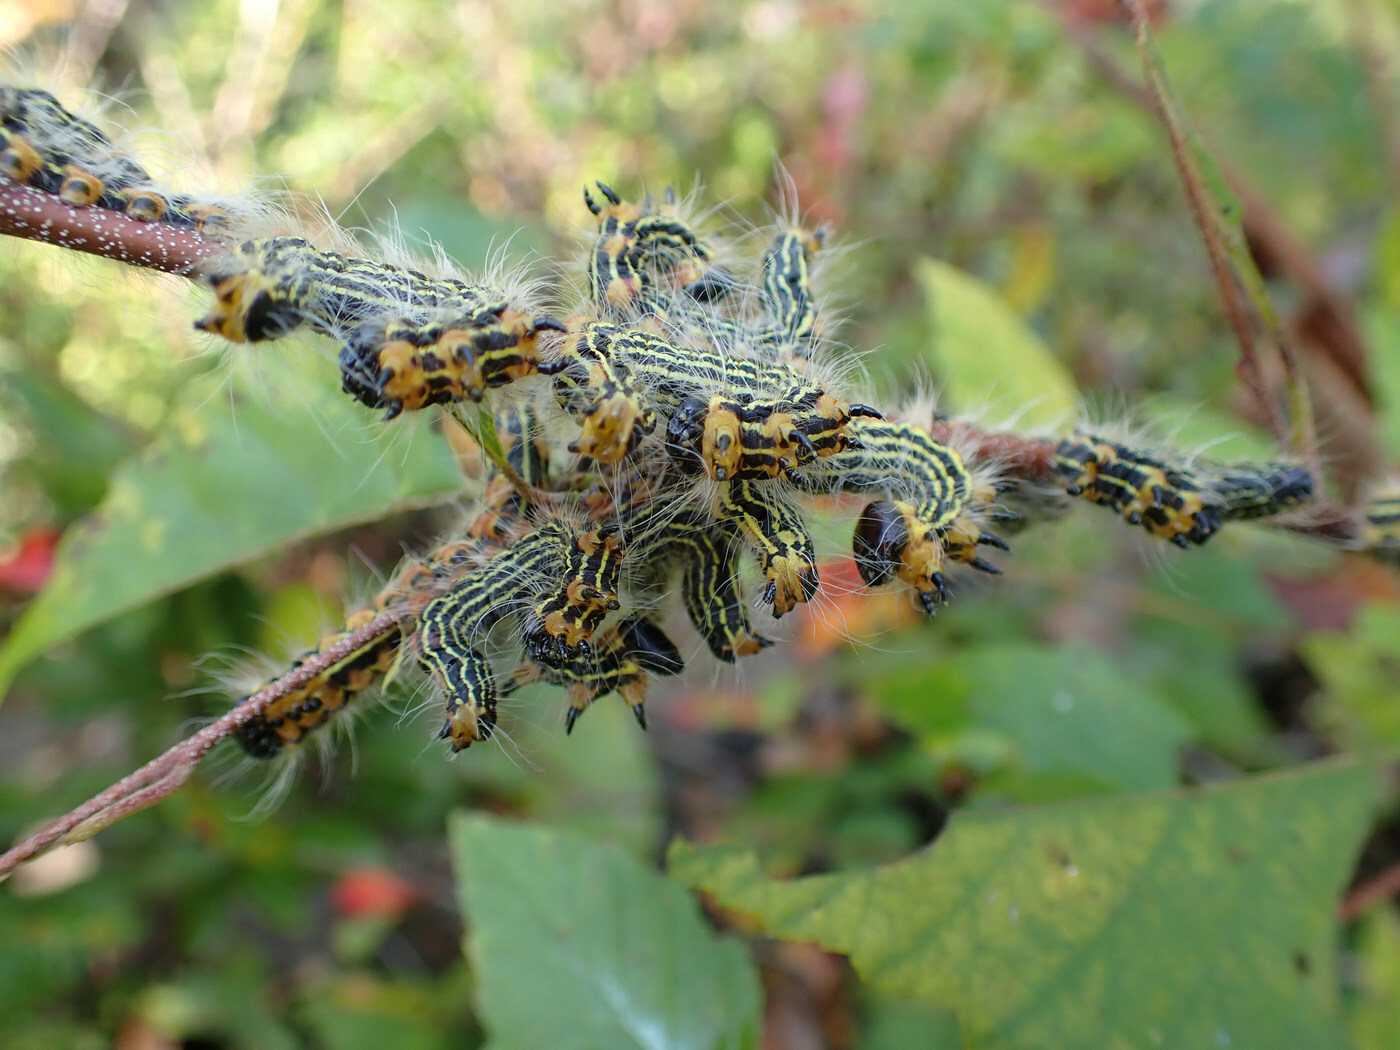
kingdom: Animalia
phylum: Arthropoda
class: Insecta
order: Lepidoptera
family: Notodontidae
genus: Datana
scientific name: Datana ministra
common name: Yellow-necked caterpillar moth
